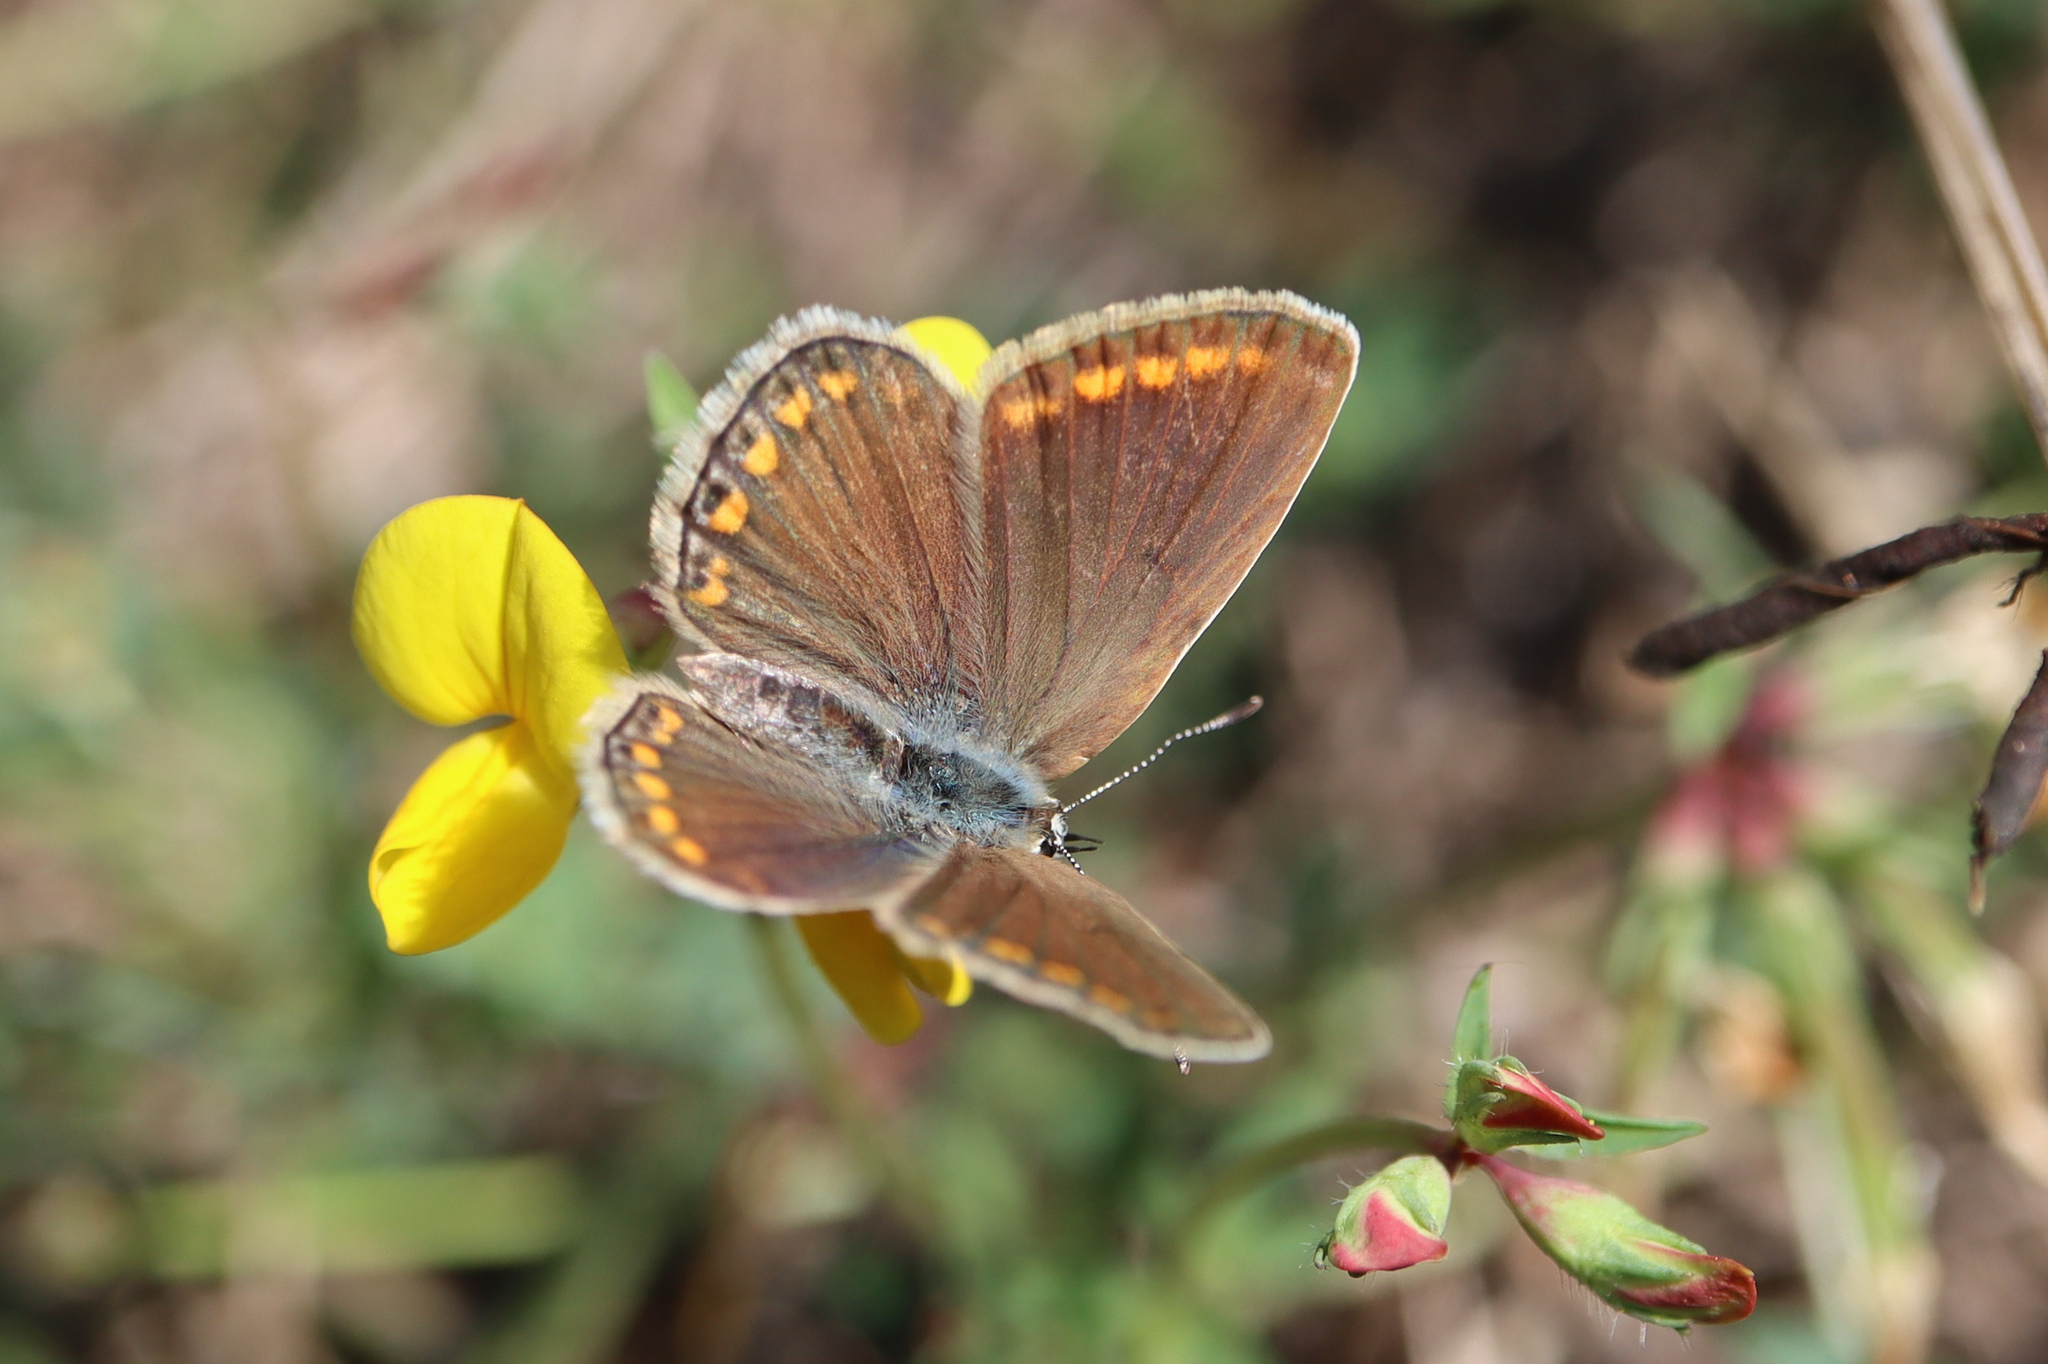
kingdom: Animalia
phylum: Arthropoda
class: Insecta
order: Lepidoptera
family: Lycaenidae
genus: Polyommatus
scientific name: Polyommatus icarus
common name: Common blue
